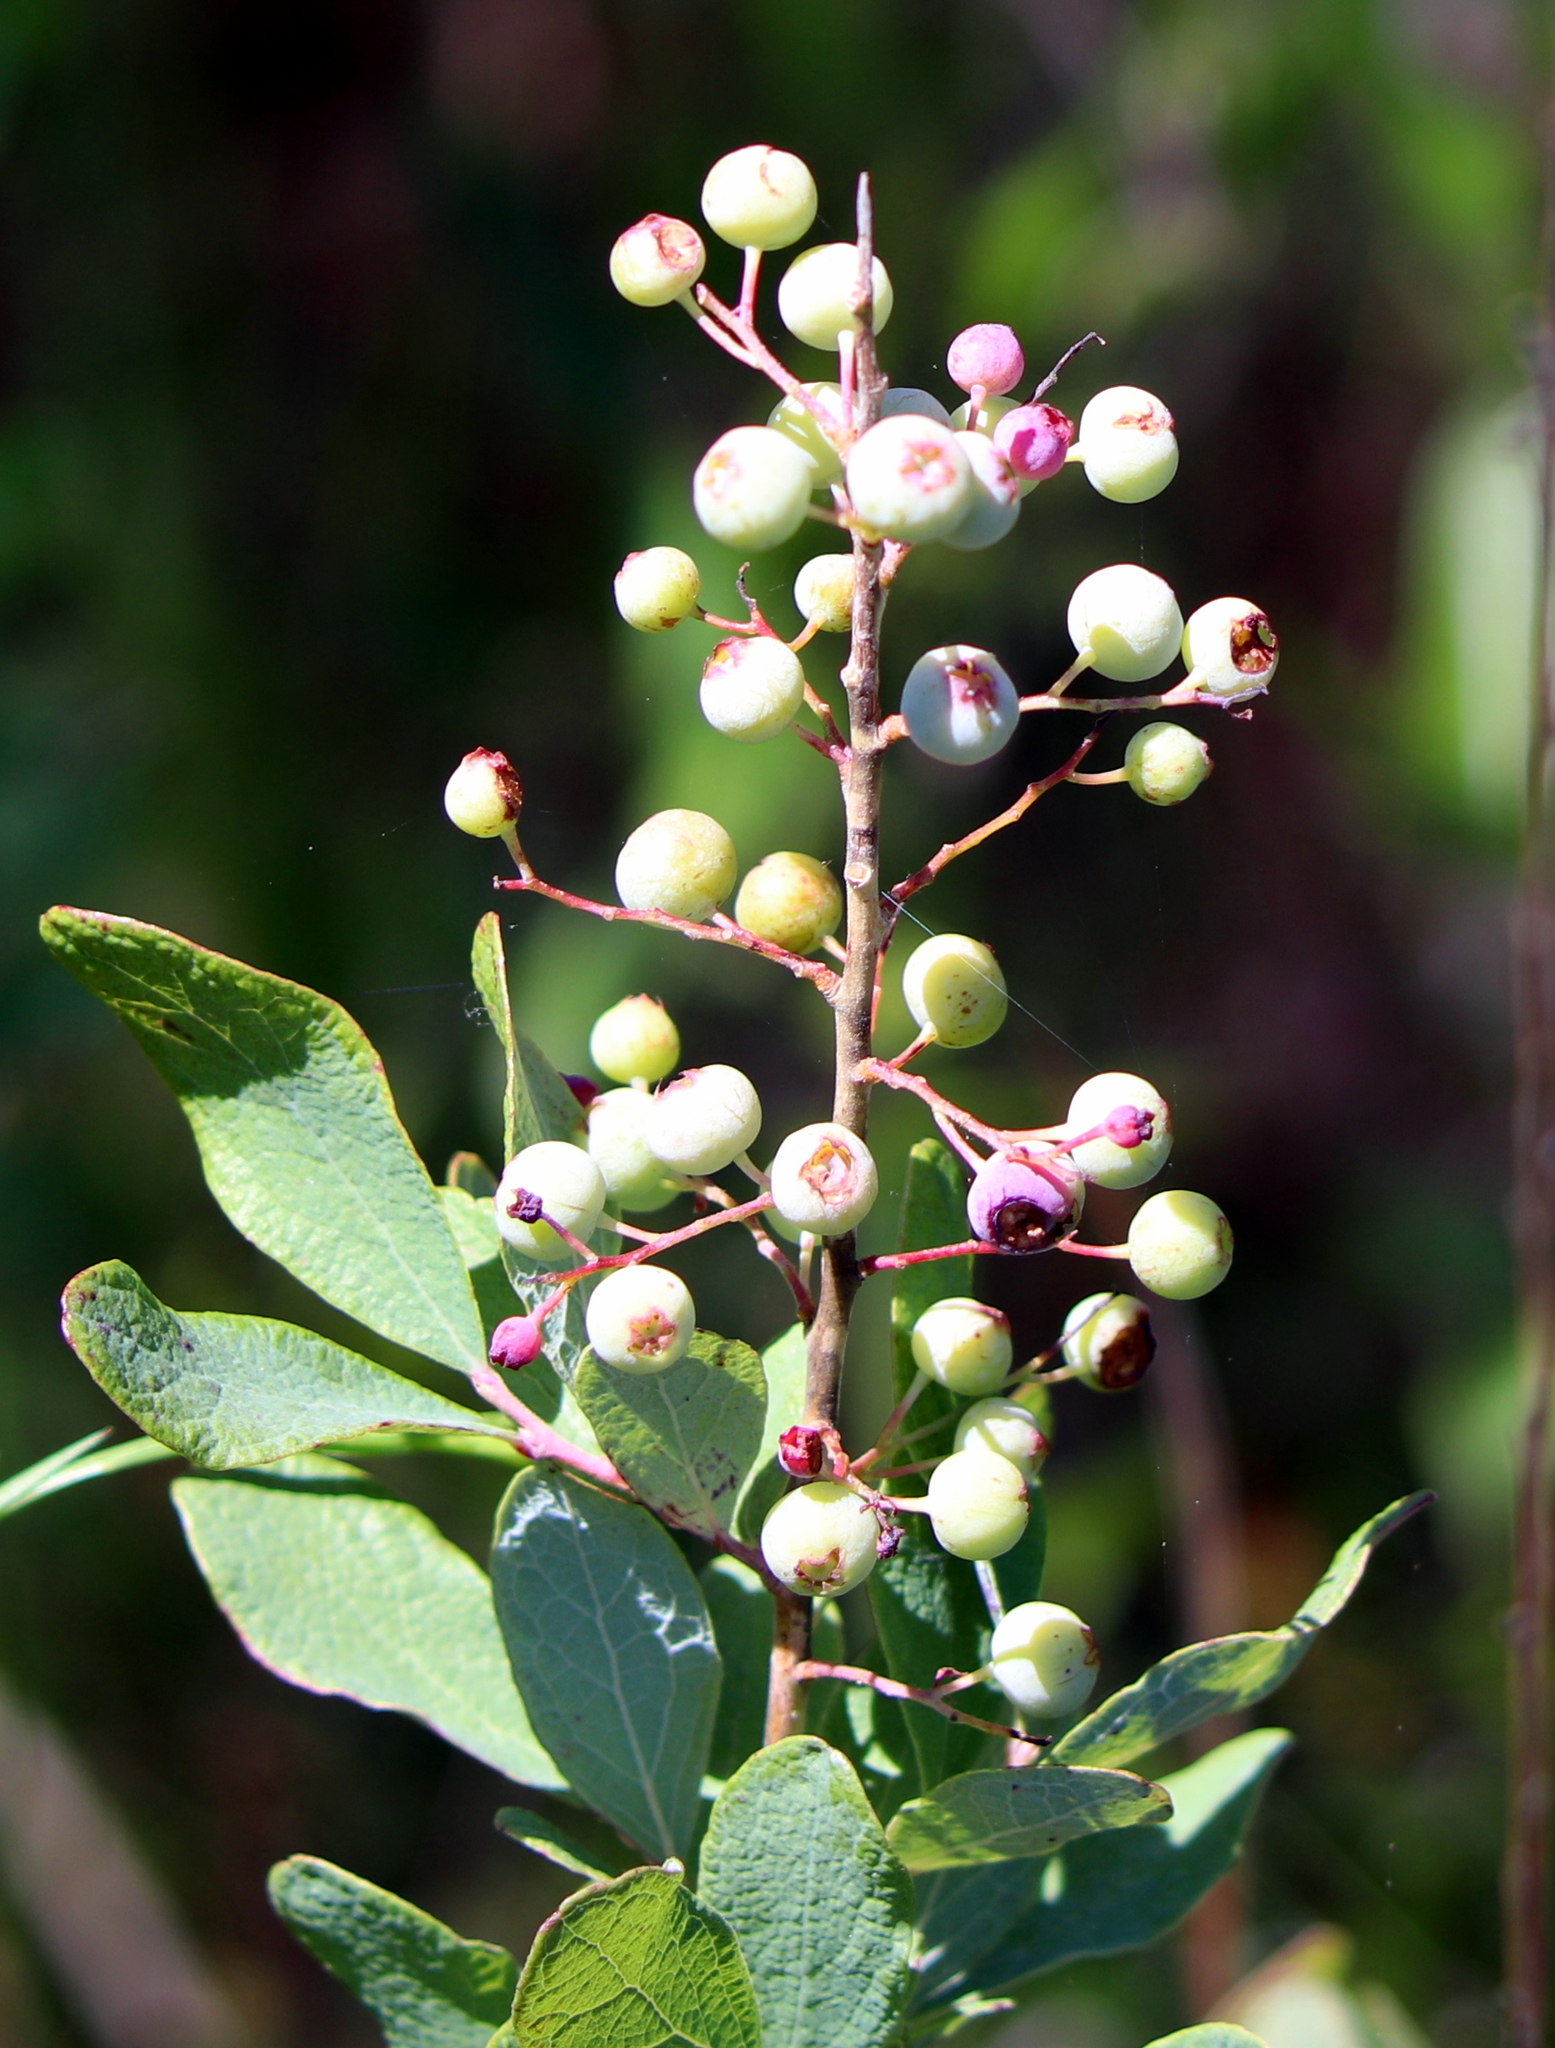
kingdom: Plantae
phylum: Tracheophyta
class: Magnoliopsida
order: Ericales
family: Ericaceae
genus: Gaylussacia
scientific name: Gaylussacia nana
